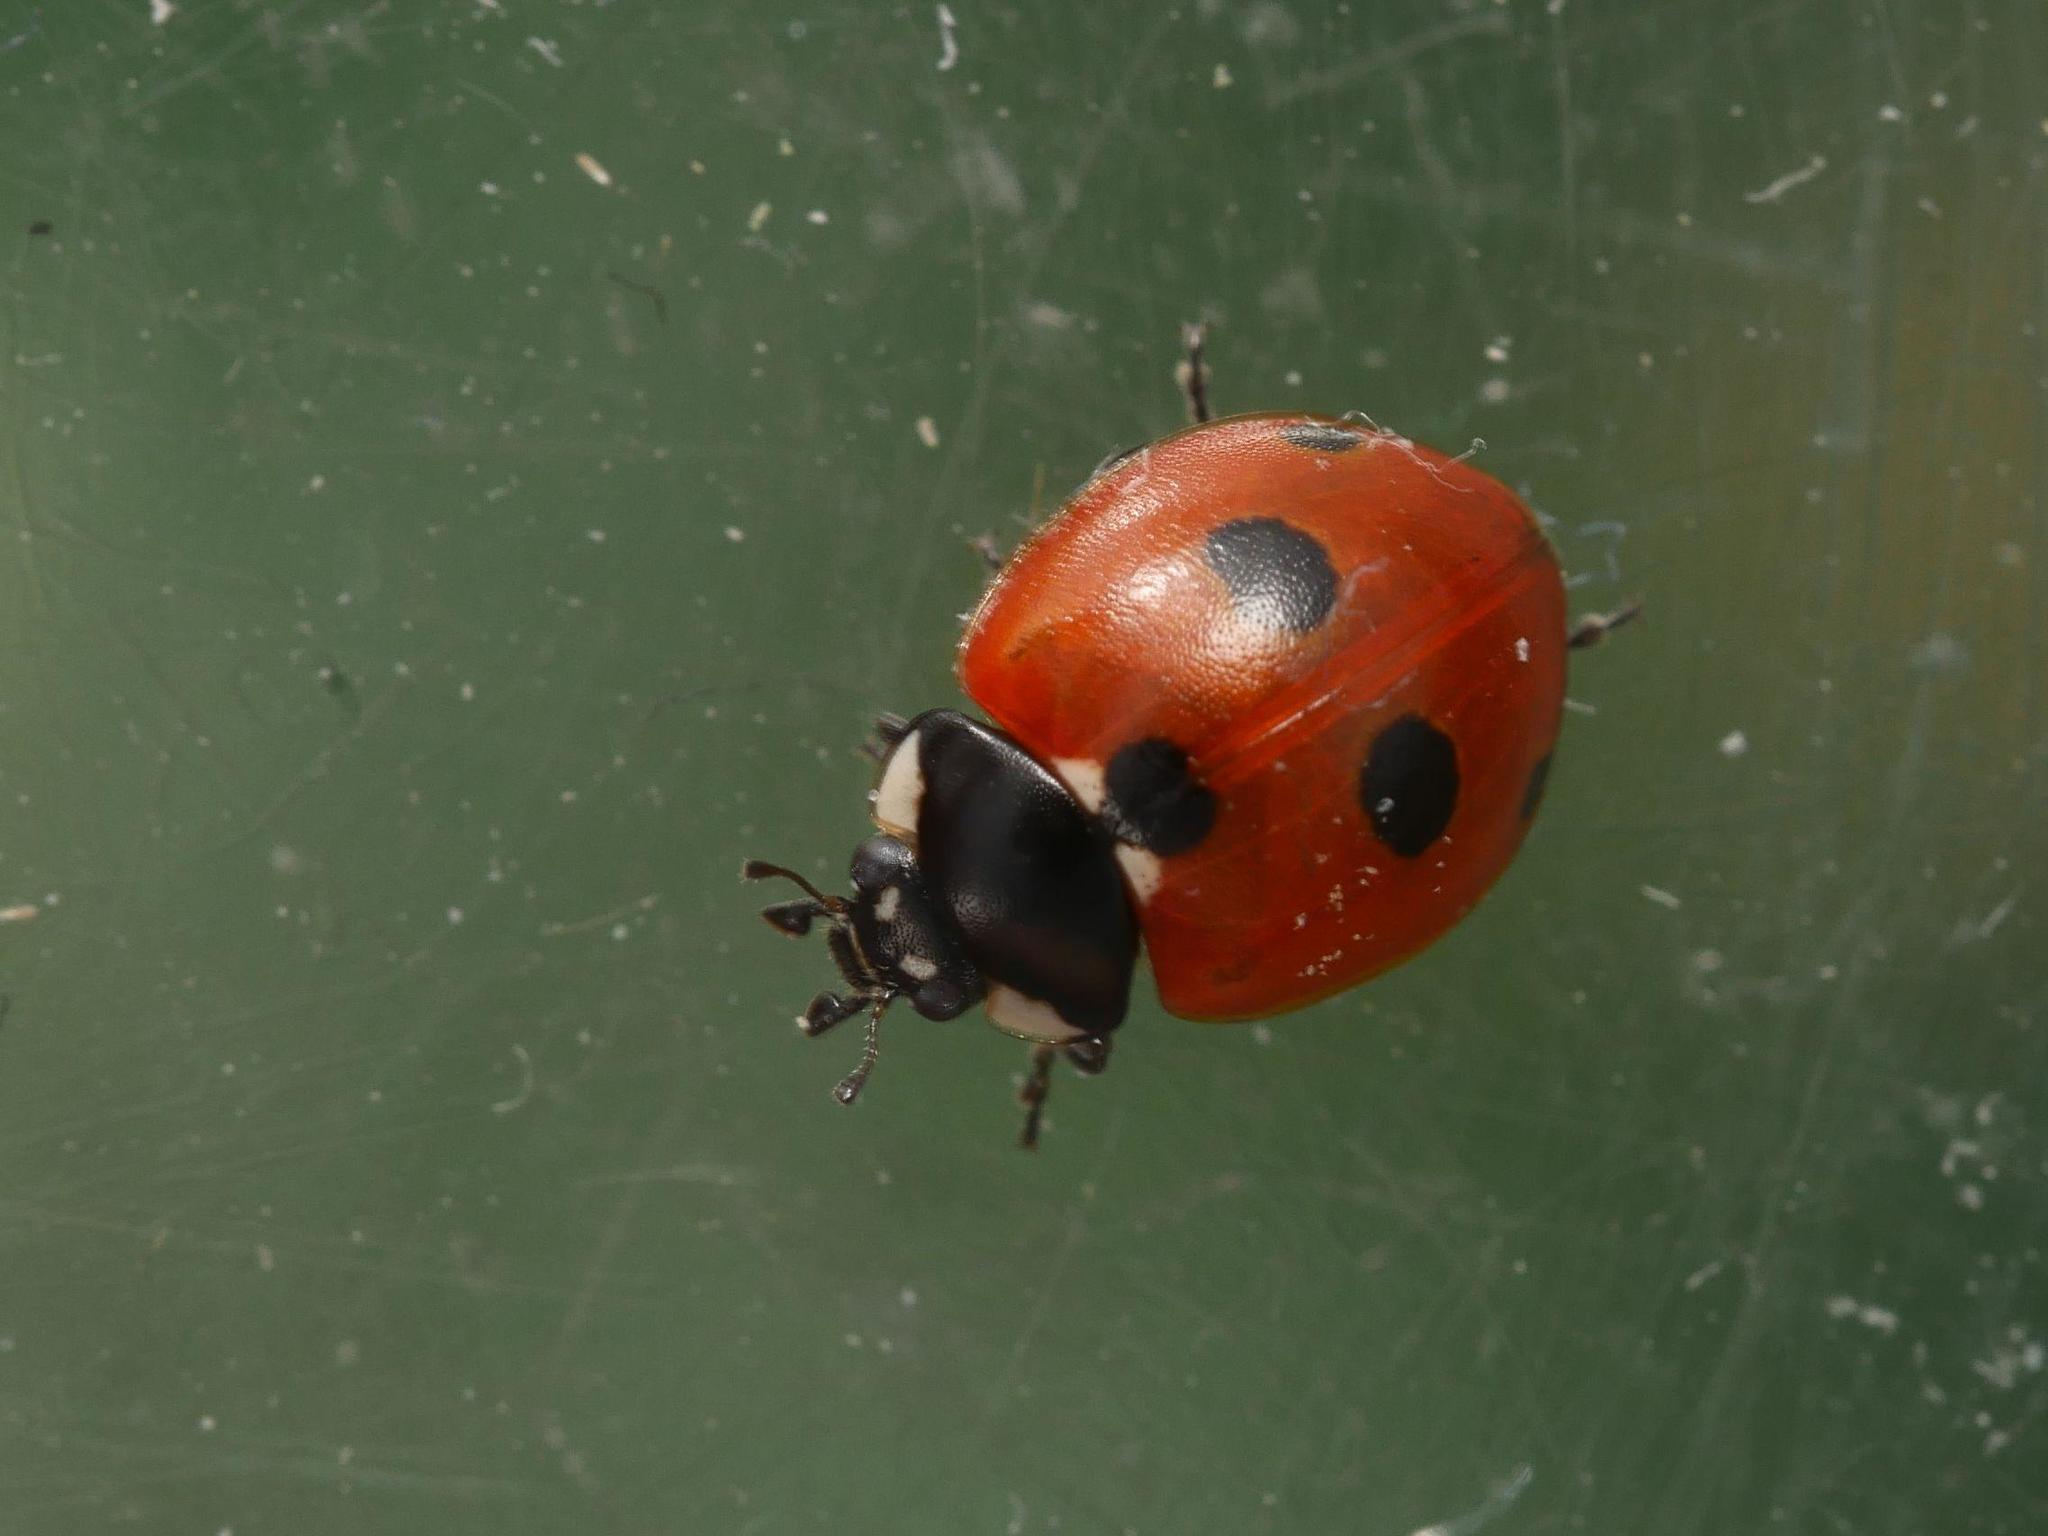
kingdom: Animalia
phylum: Arthropoda
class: Insecta
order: Coleoptera
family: Coccinellidae
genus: Coccinella
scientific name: Coccinella quinquepunctata
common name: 5-spot ladybird
